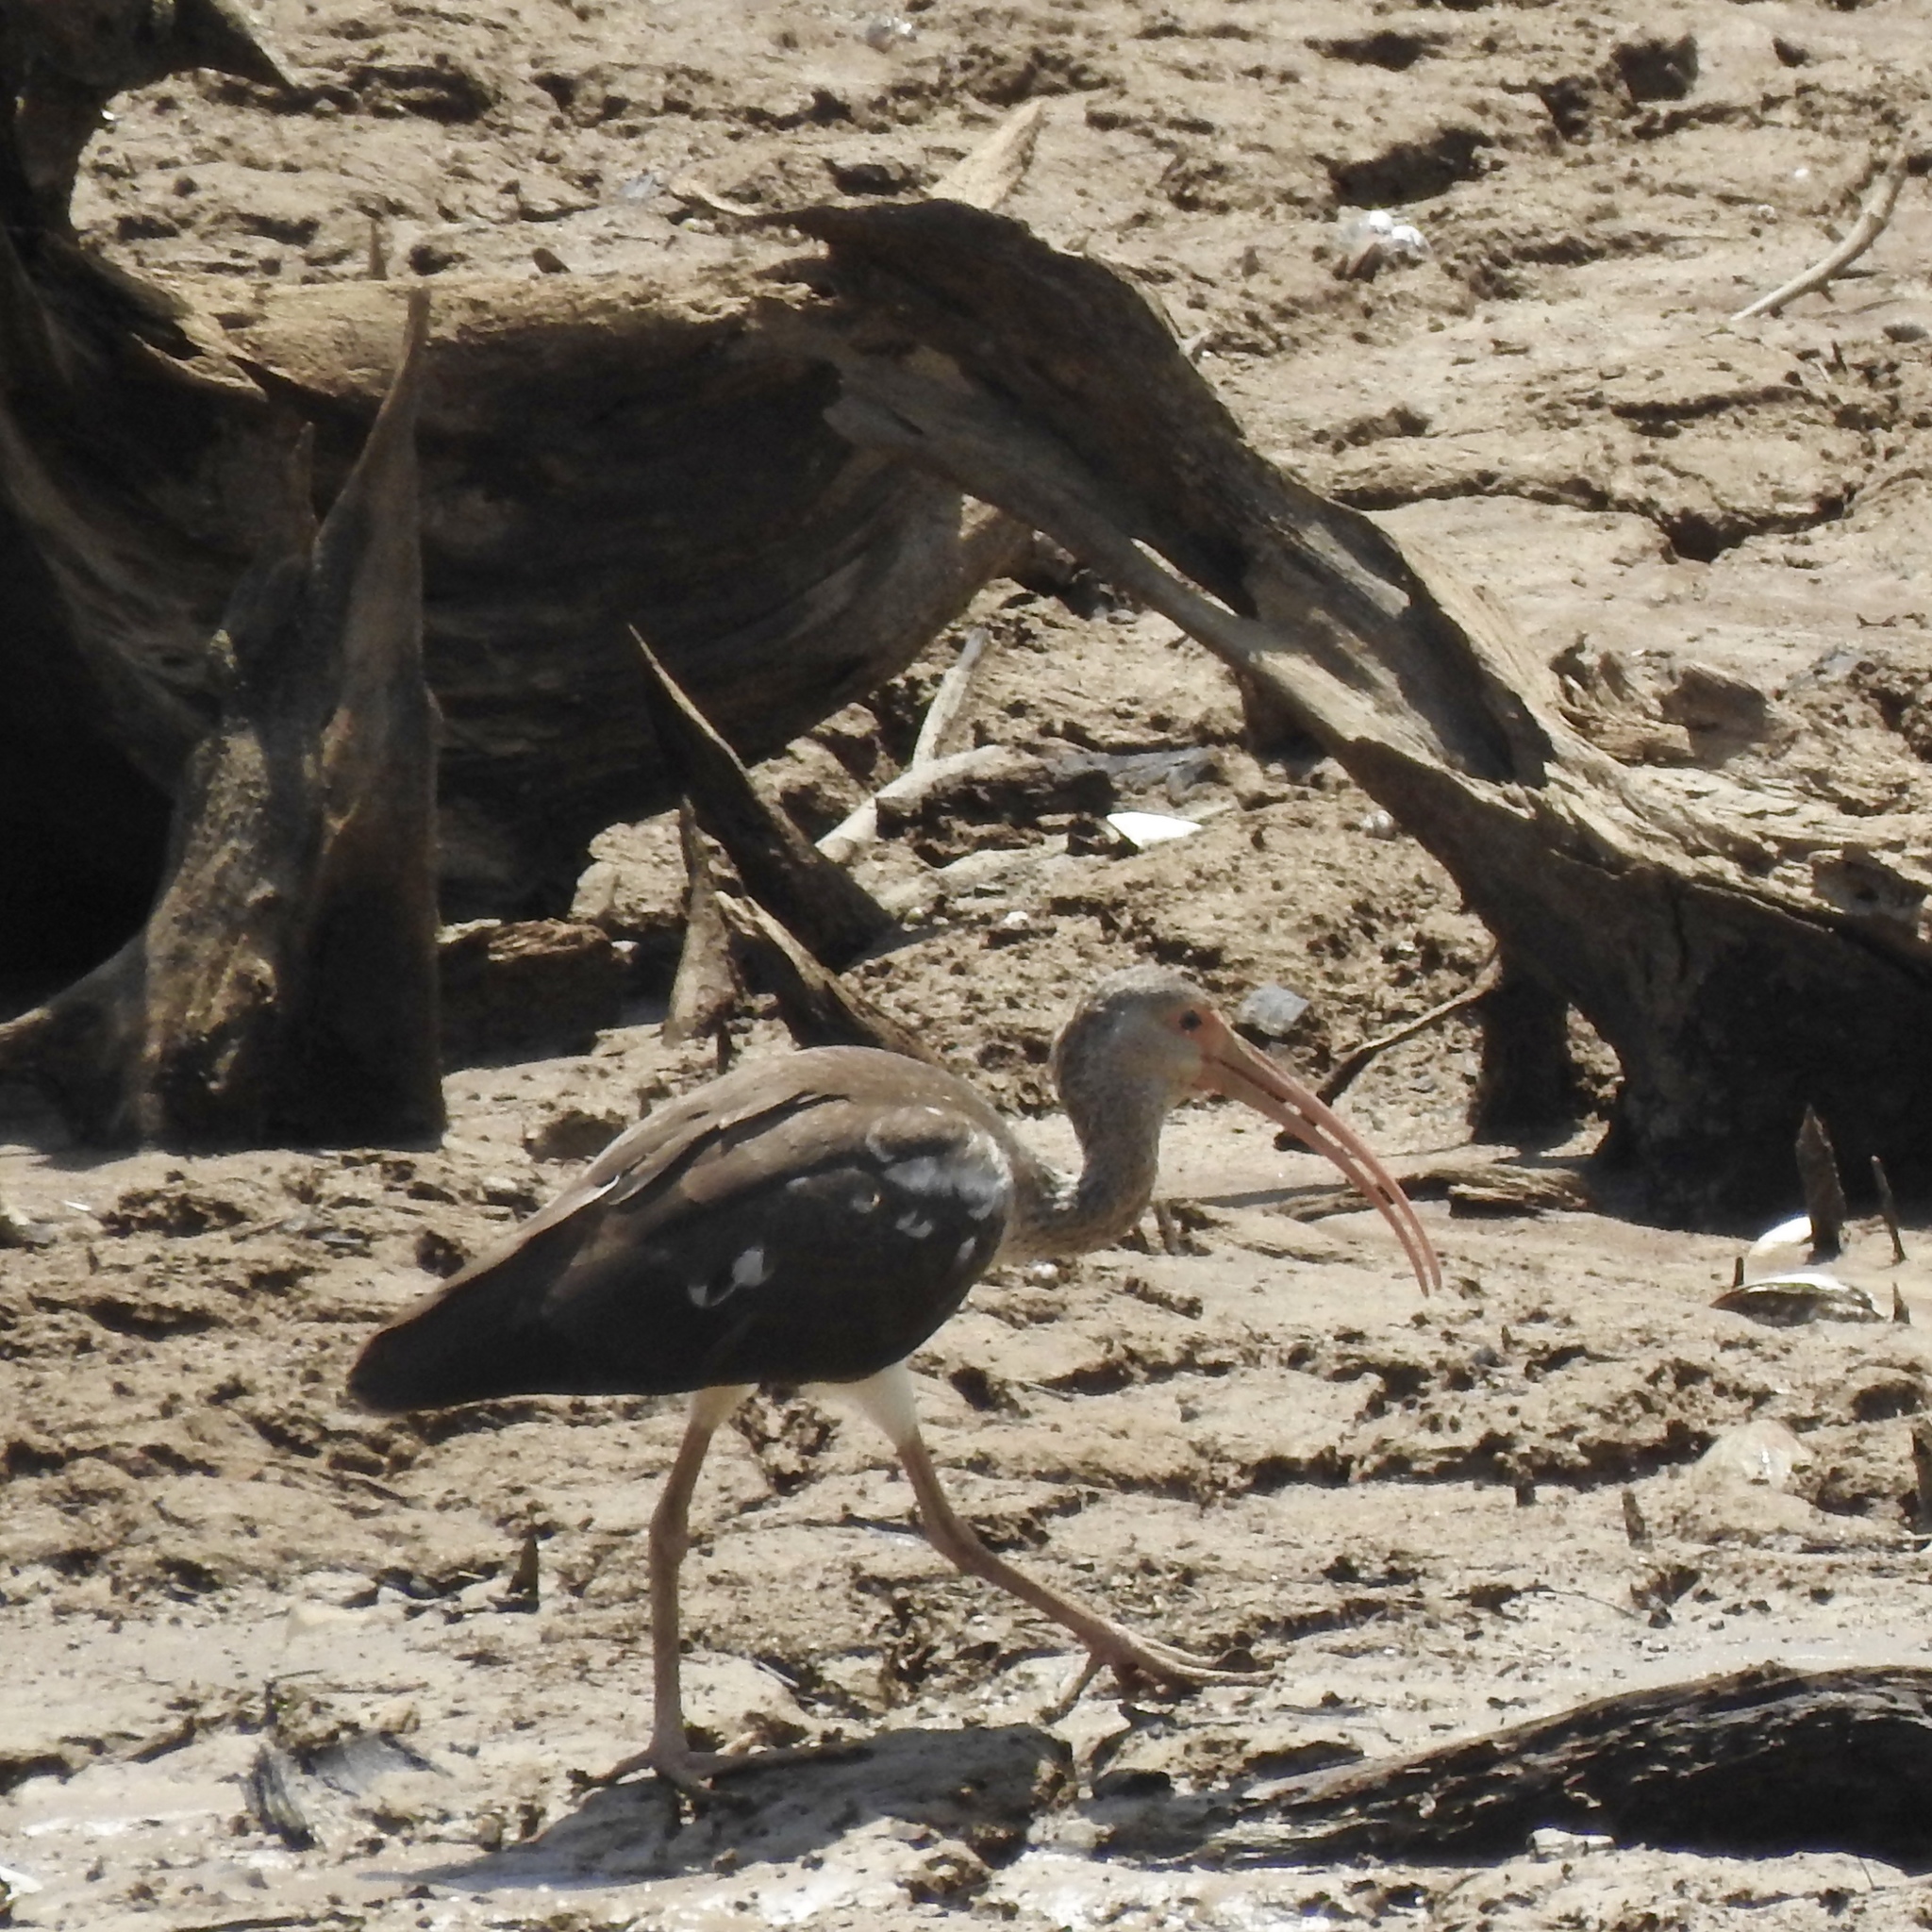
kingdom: Animalia
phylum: Chordata
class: Aves
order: Pelecaniformes
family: Threskiornithidae
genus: Eudocimus
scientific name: Eudocimus albus
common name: White ibis
